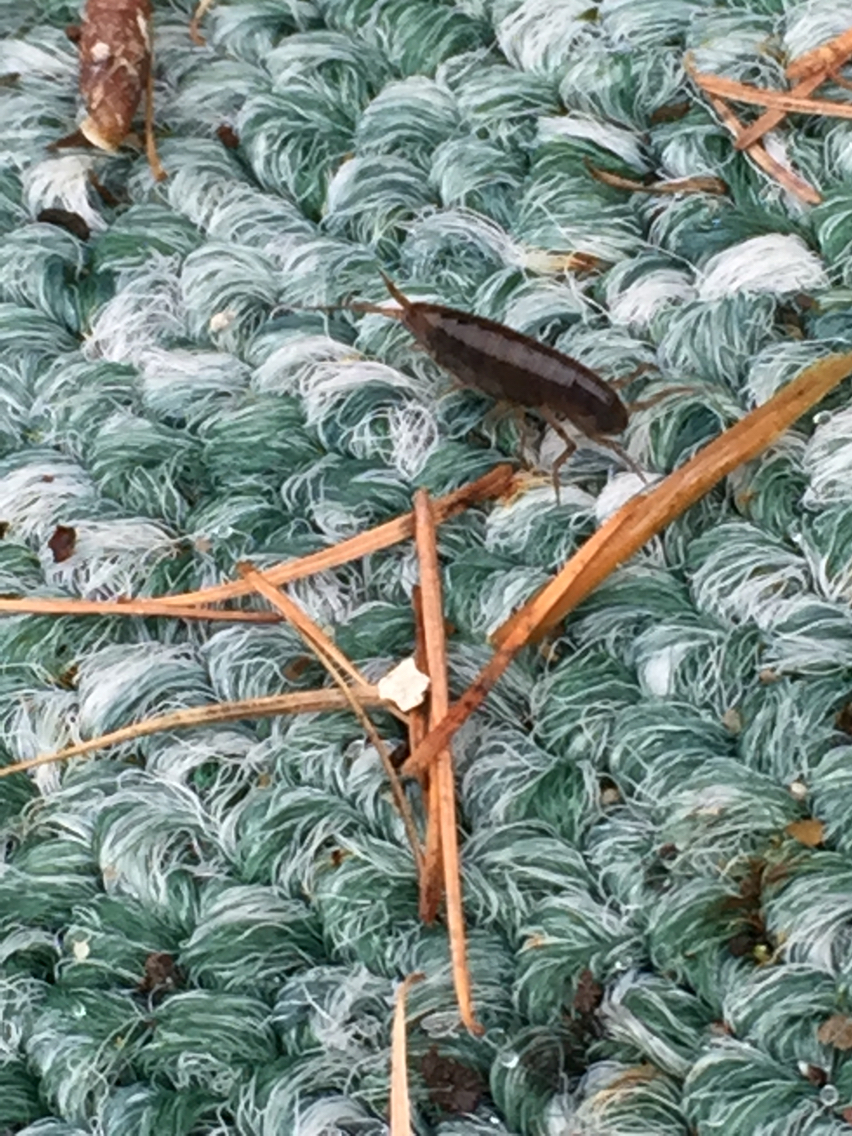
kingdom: Animalia
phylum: Arthropoda
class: Malacostraca
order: Amphipoda
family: Arcitalitridae
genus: Arcitalitrus
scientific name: Arcitalitrus dorrieni
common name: Landhopper
